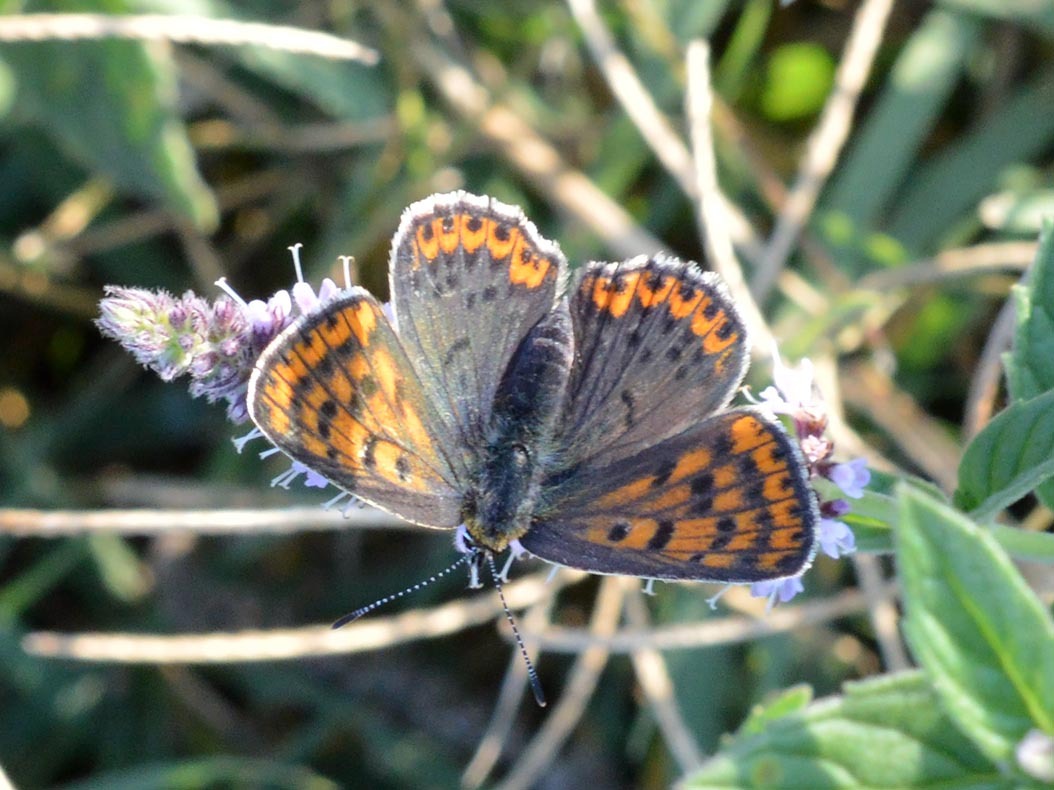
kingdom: Animalia
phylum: Arthropoda
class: Insecta
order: Lepidoptera
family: Lycaenidae
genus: Loweia
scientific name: Loweia tityrus
